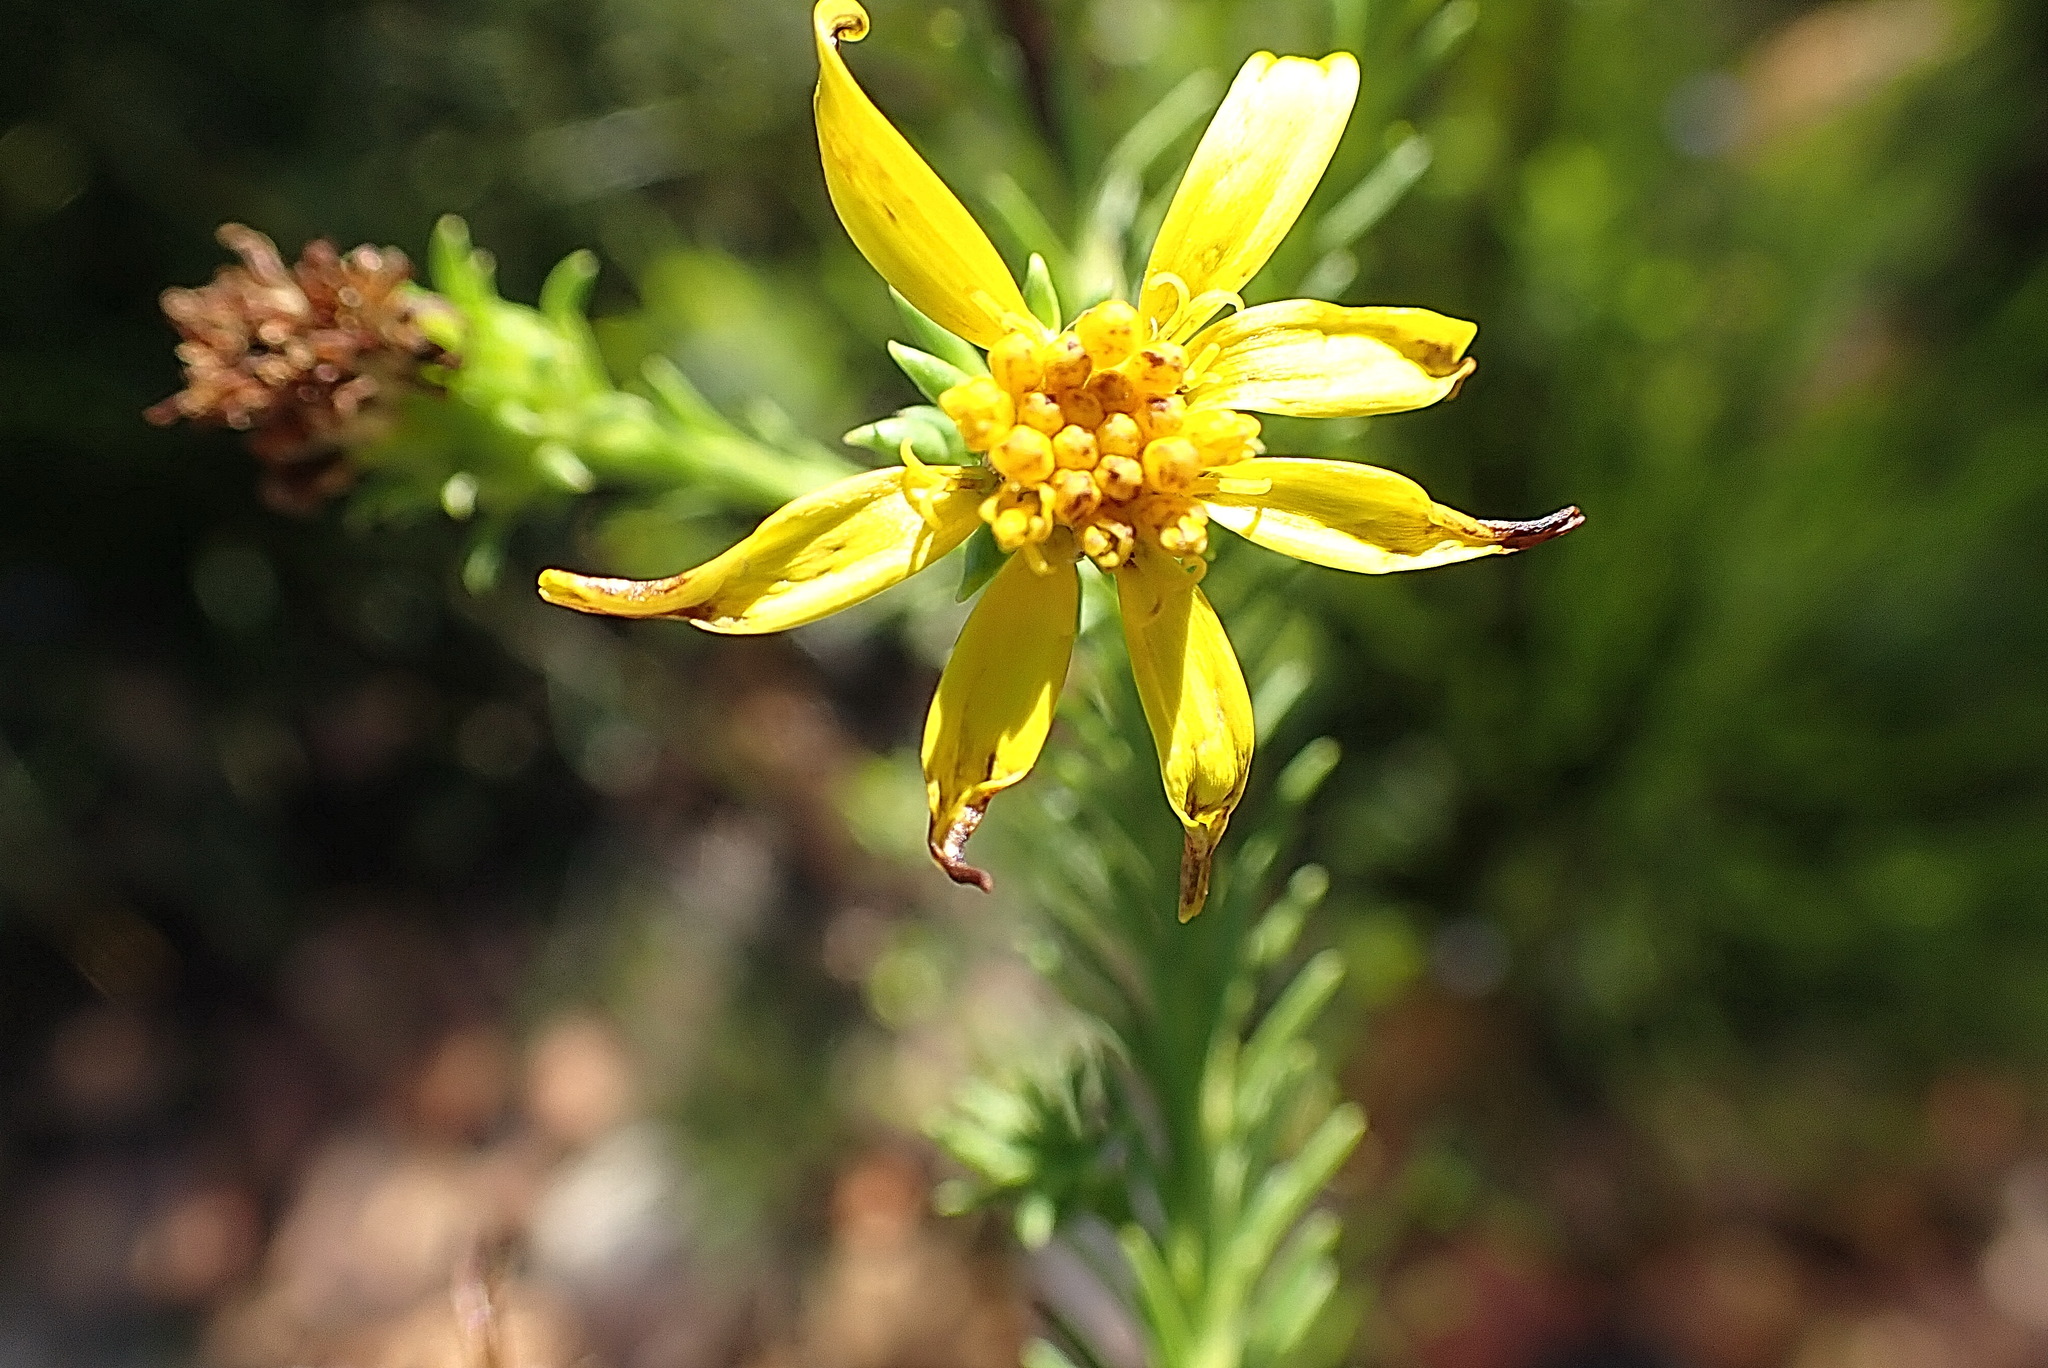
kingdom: Plantae
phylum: Tracheophyta
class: Magnoliopsida
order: Asterales
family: Asteraceae
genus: Senecio
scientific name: Senecio pinifolius
